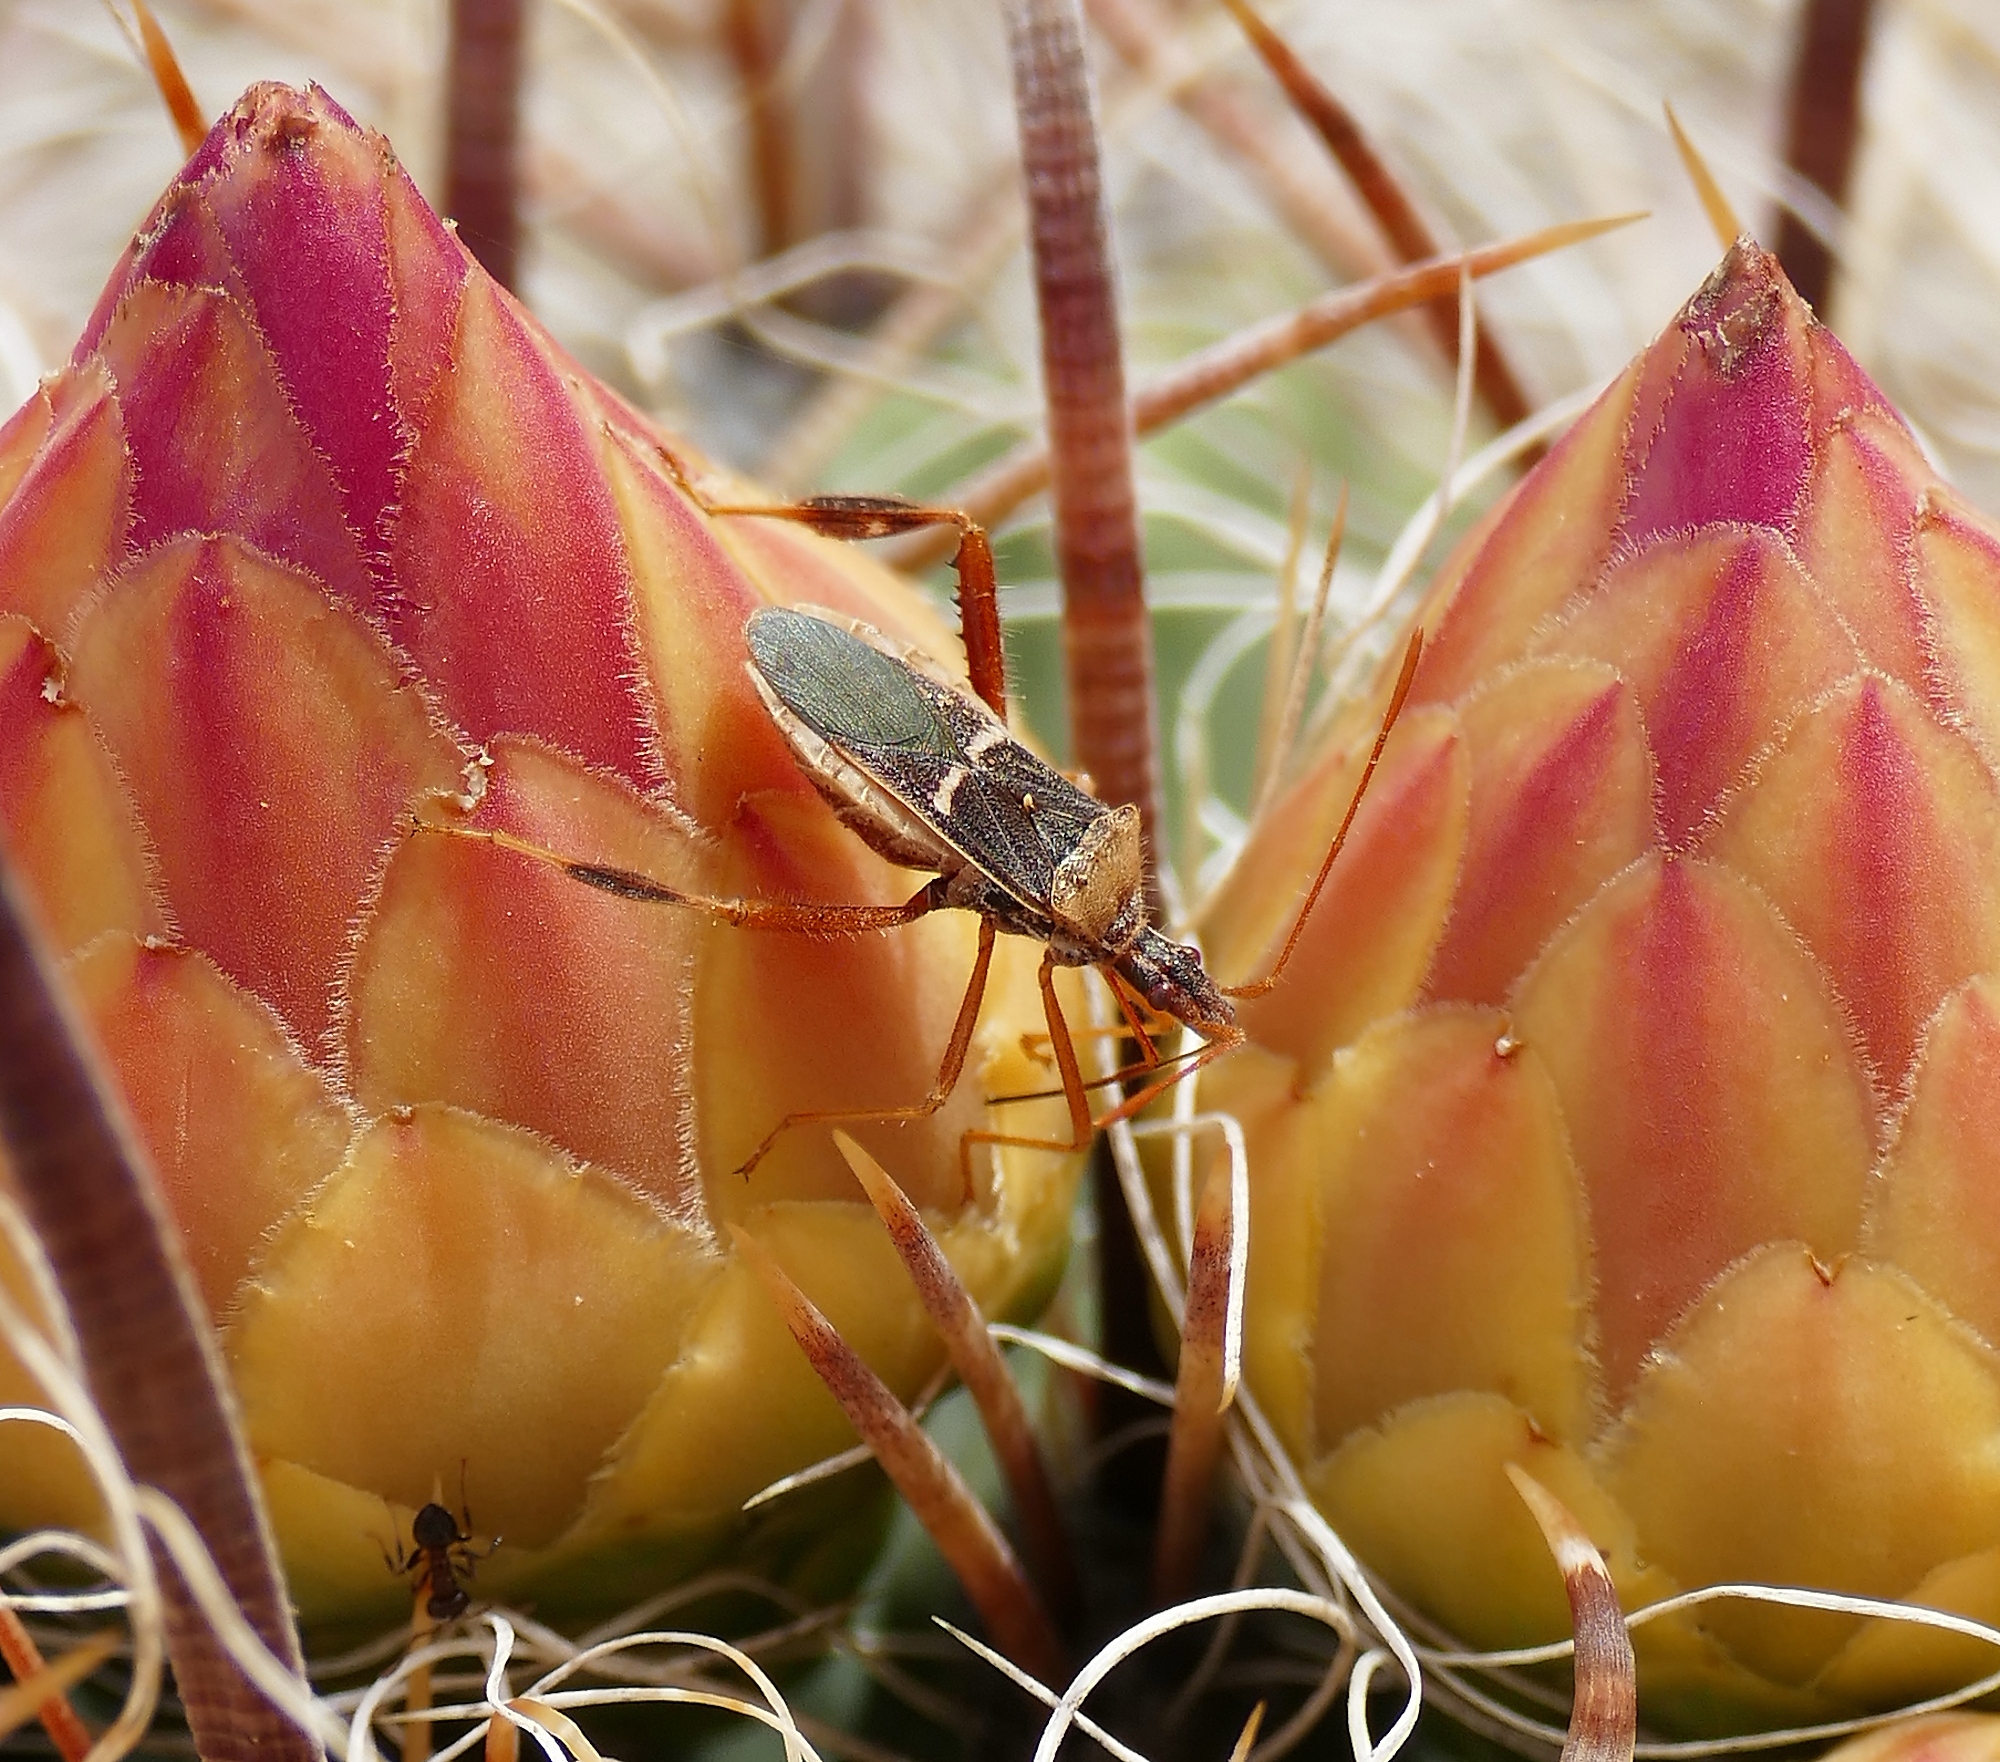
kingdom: Animalia
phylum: Arthropoda
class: Insecta
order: Hemiptera
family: Coreidae
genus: Narnia
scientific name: Narnia snowi
